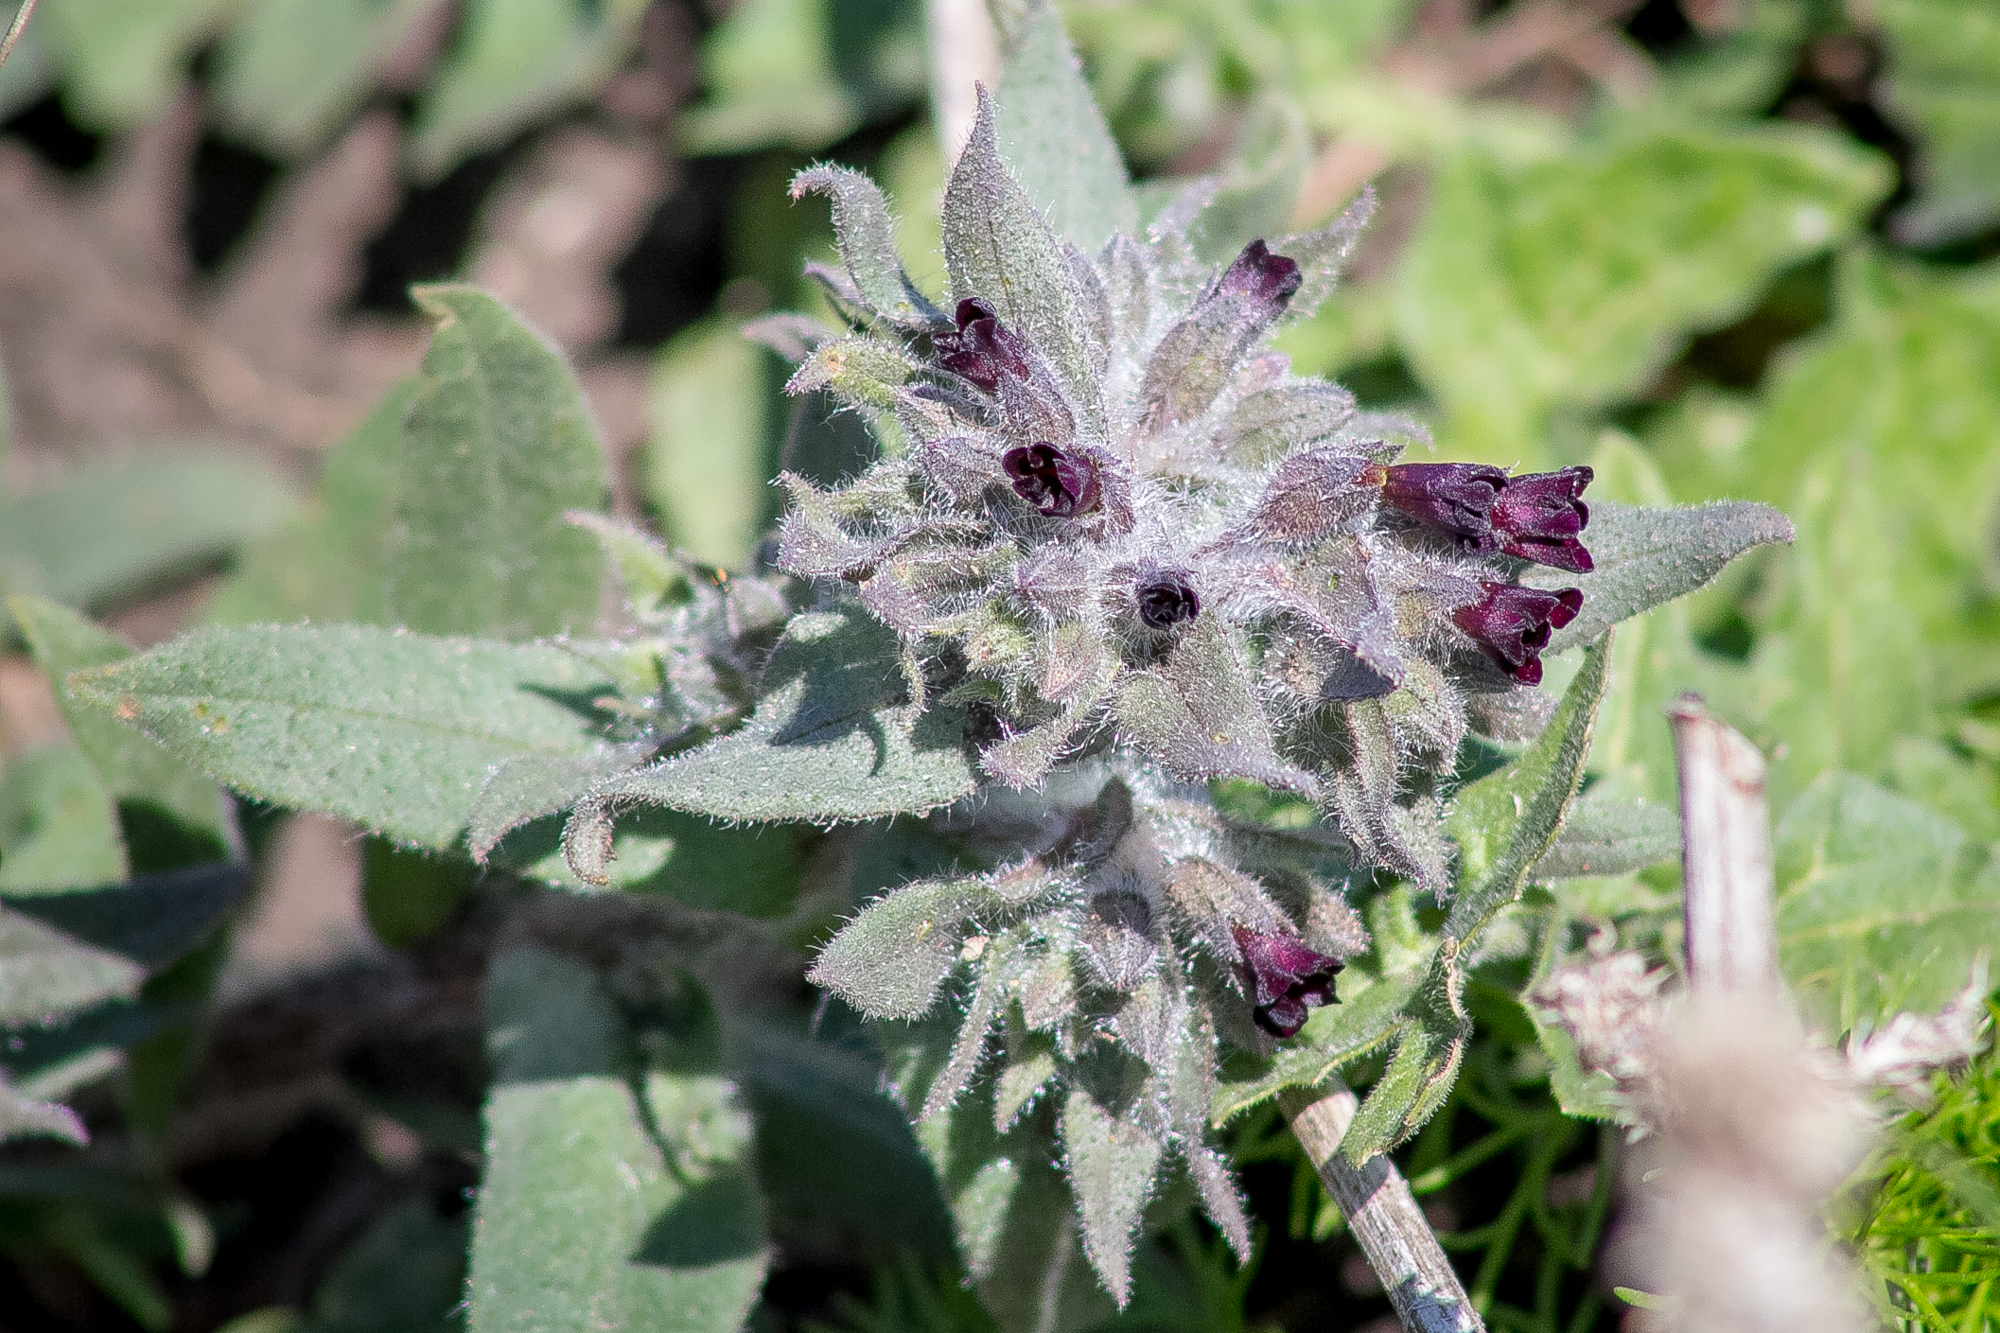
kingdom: Plantae
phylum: Tracheophyta
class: Magnoliopsida
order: Boraginales
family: Boraginaceae
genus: Nonea
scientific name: Nonea pulla
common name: Brown nonea
